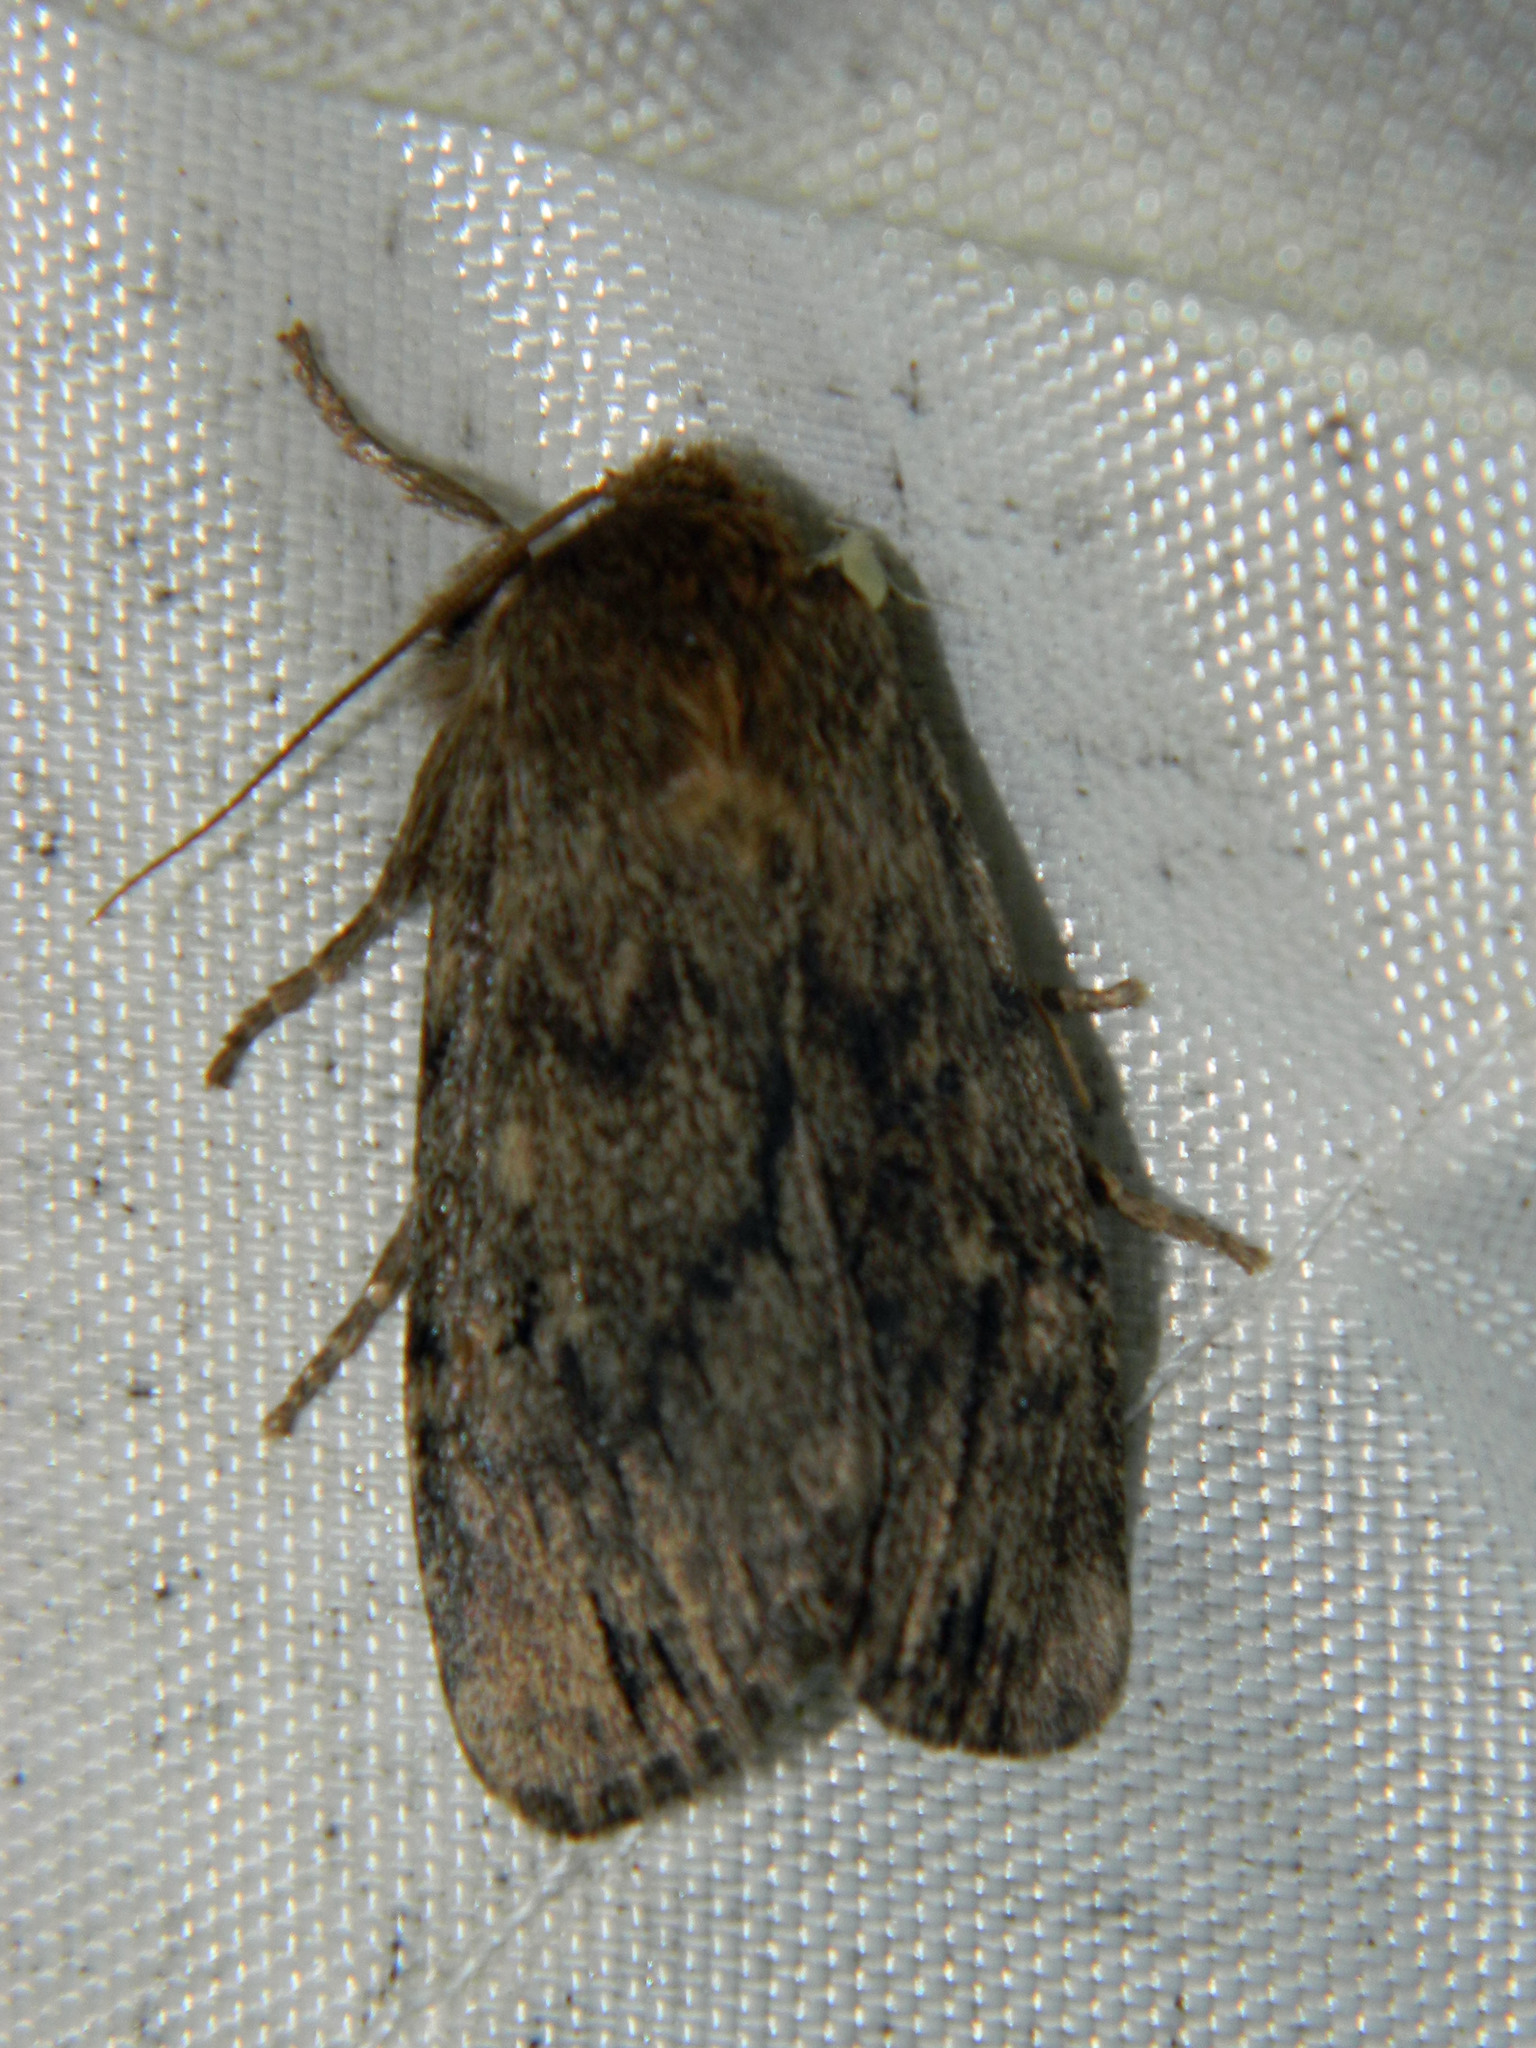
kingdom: Animalia
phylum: Arthropoda
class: Insecta
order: Lepidoptera
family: Noctuidae
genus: Ufeus
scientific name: Ufeus satyricus
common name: Brown satyr moth
